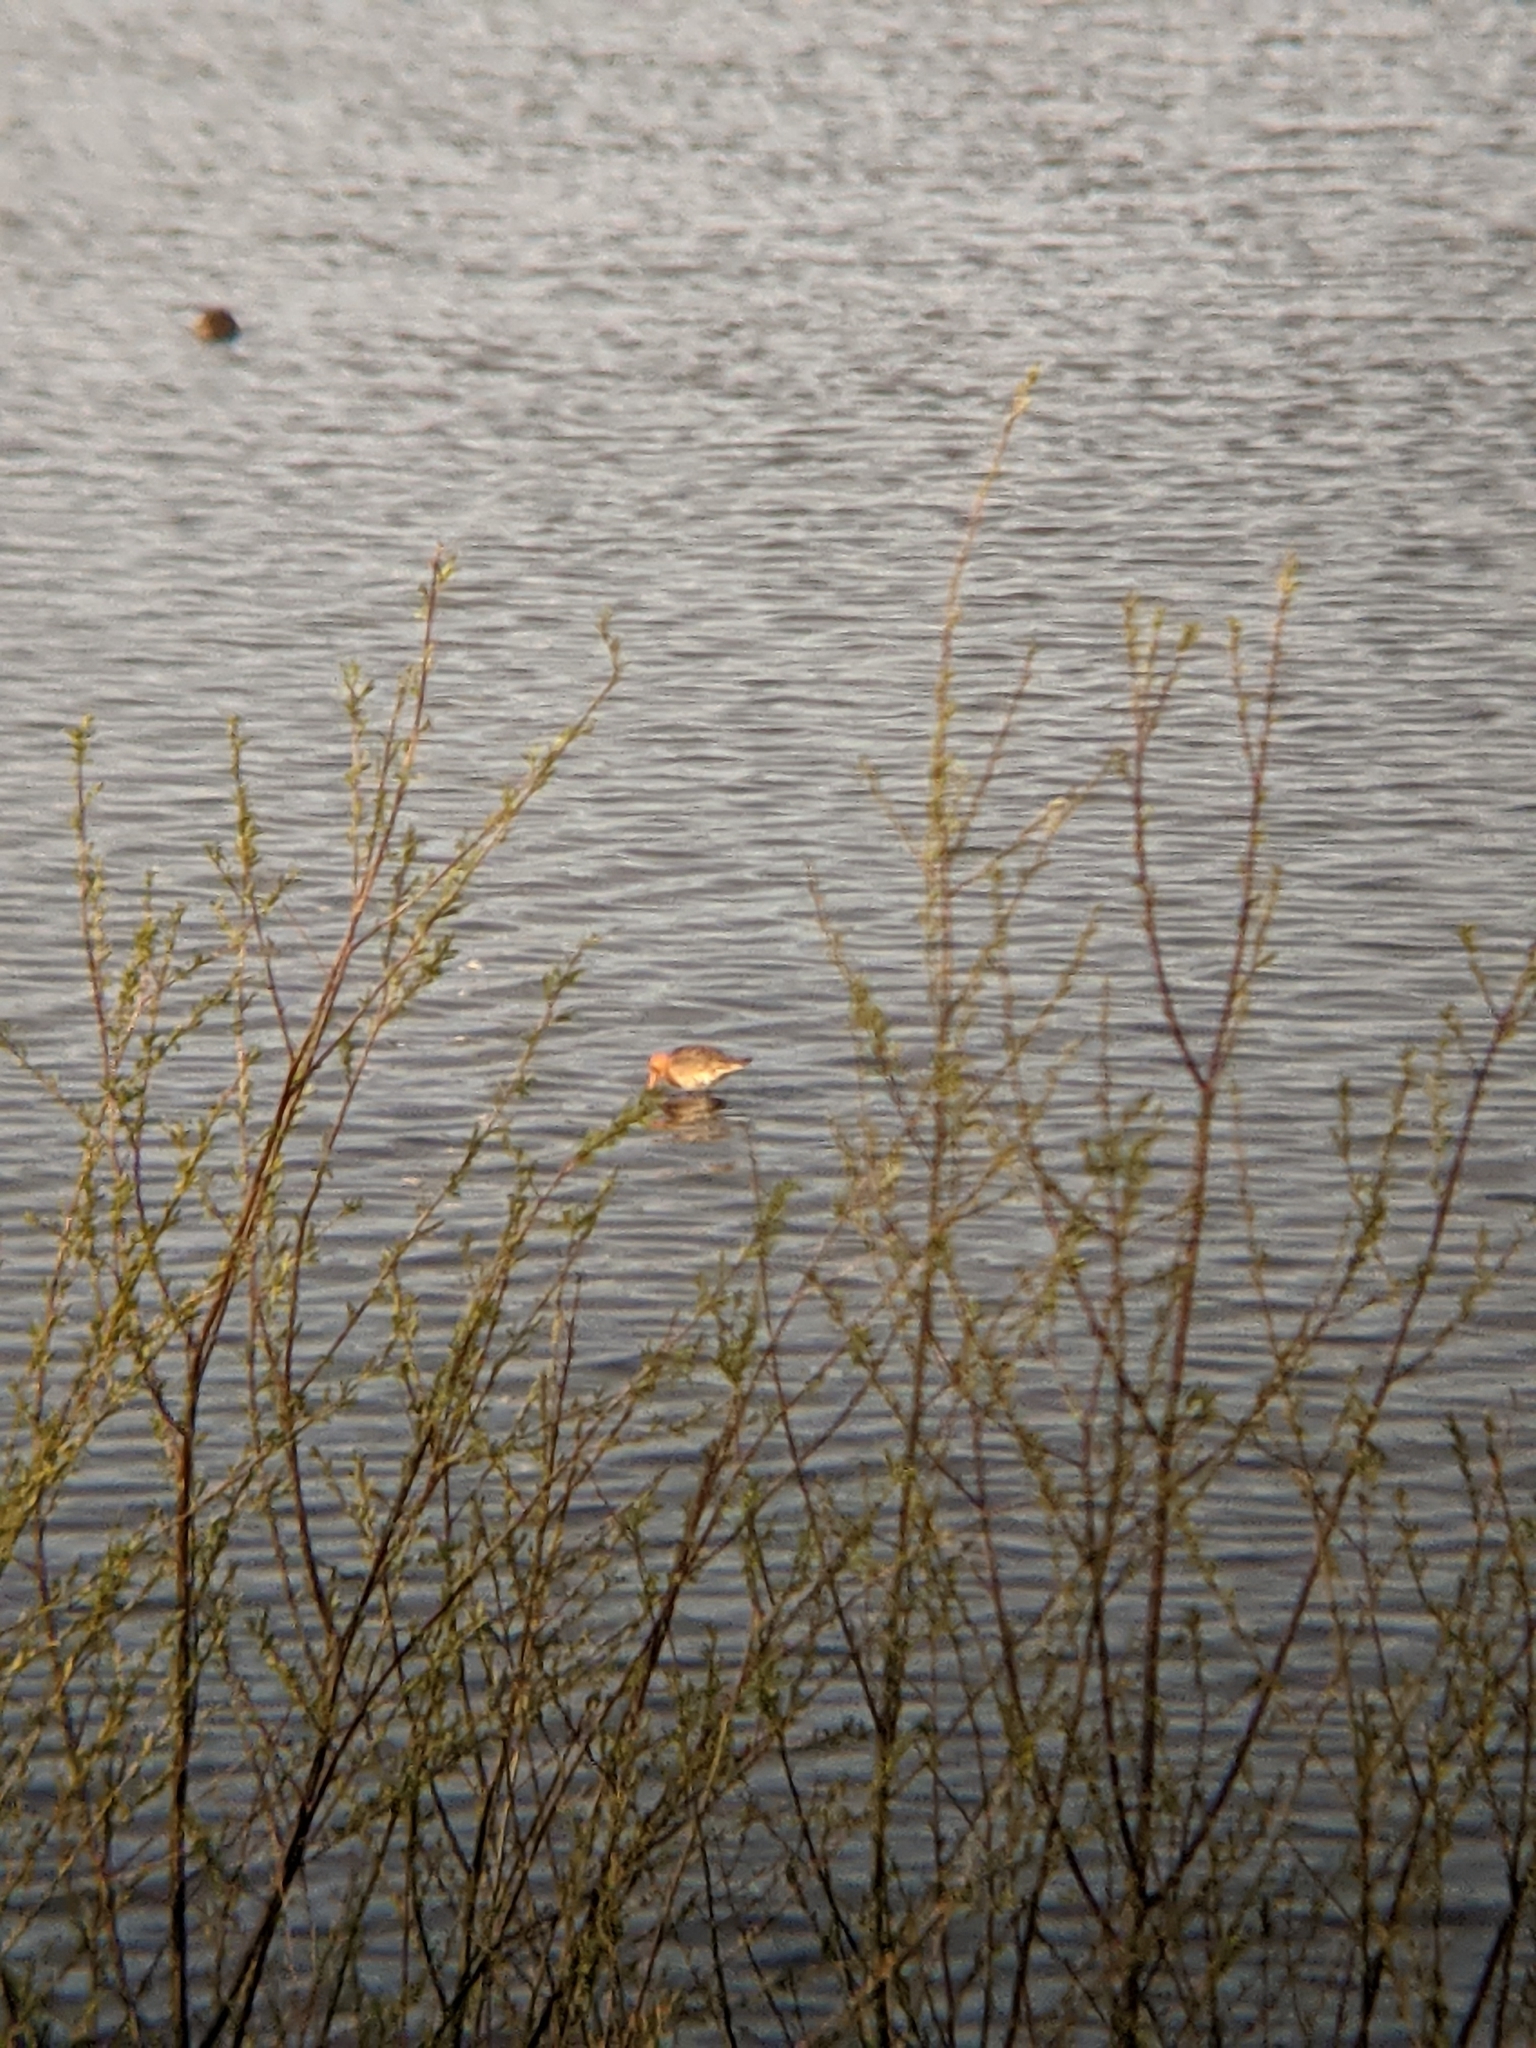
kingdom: Animalia
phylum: Chordata
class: Aves
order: Charadriiformes
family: Scolopacidae
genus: Limosa
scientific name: Limosa limosa
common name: Black-tailed godwit
